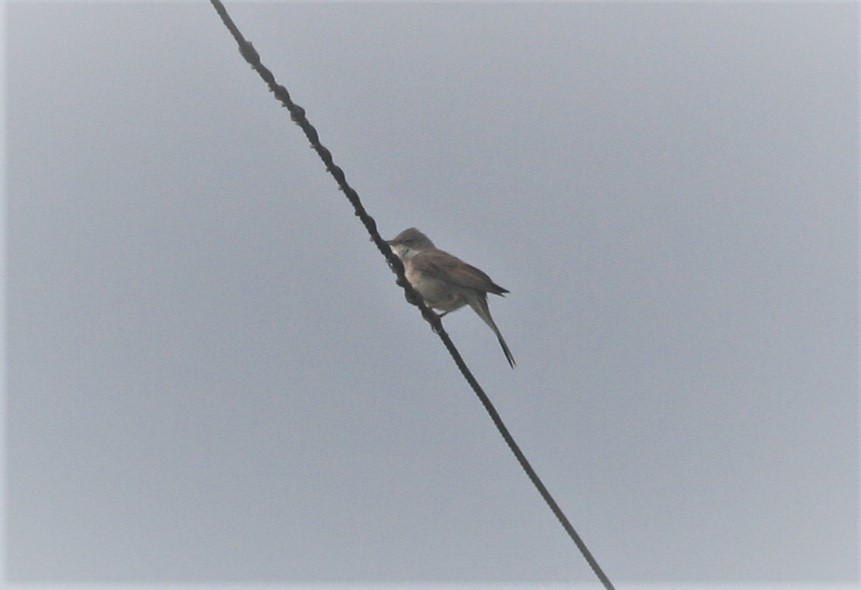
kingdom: Animalia
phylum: Chordata
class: Aves
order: Passeriformes
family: Sylviidae
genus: Sylvia
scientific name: Sylvia communis
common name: Common whitethroat
